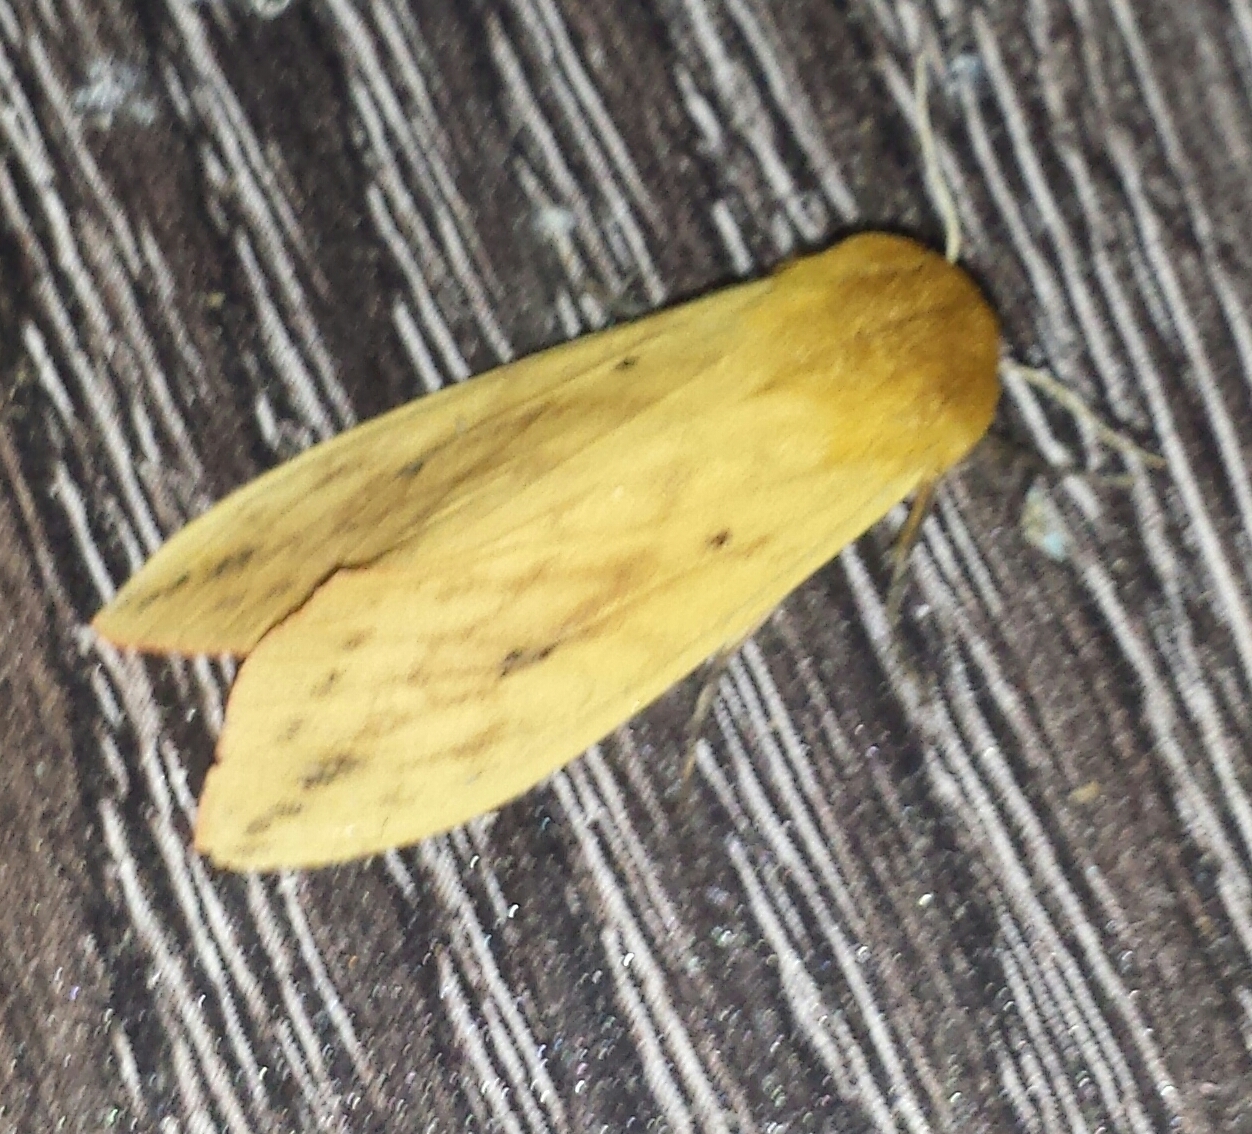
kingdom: Animalia
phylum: Arthropoda
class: Insecta
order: Lepidoptera
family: Erebidae
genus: Pyrrharctia
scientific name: Pyrrharctia isabella
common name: Isabella tiger moth
